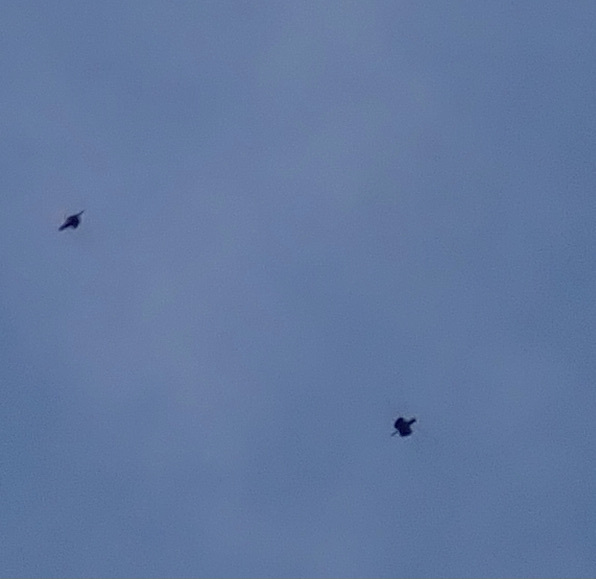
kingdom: Animalia
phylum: Arthropoda
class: Insecta
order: Odonata
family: Libellulidae
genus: Rhyothemis
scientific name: Rhyothemis semihyalina
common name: Phantom flutterer
